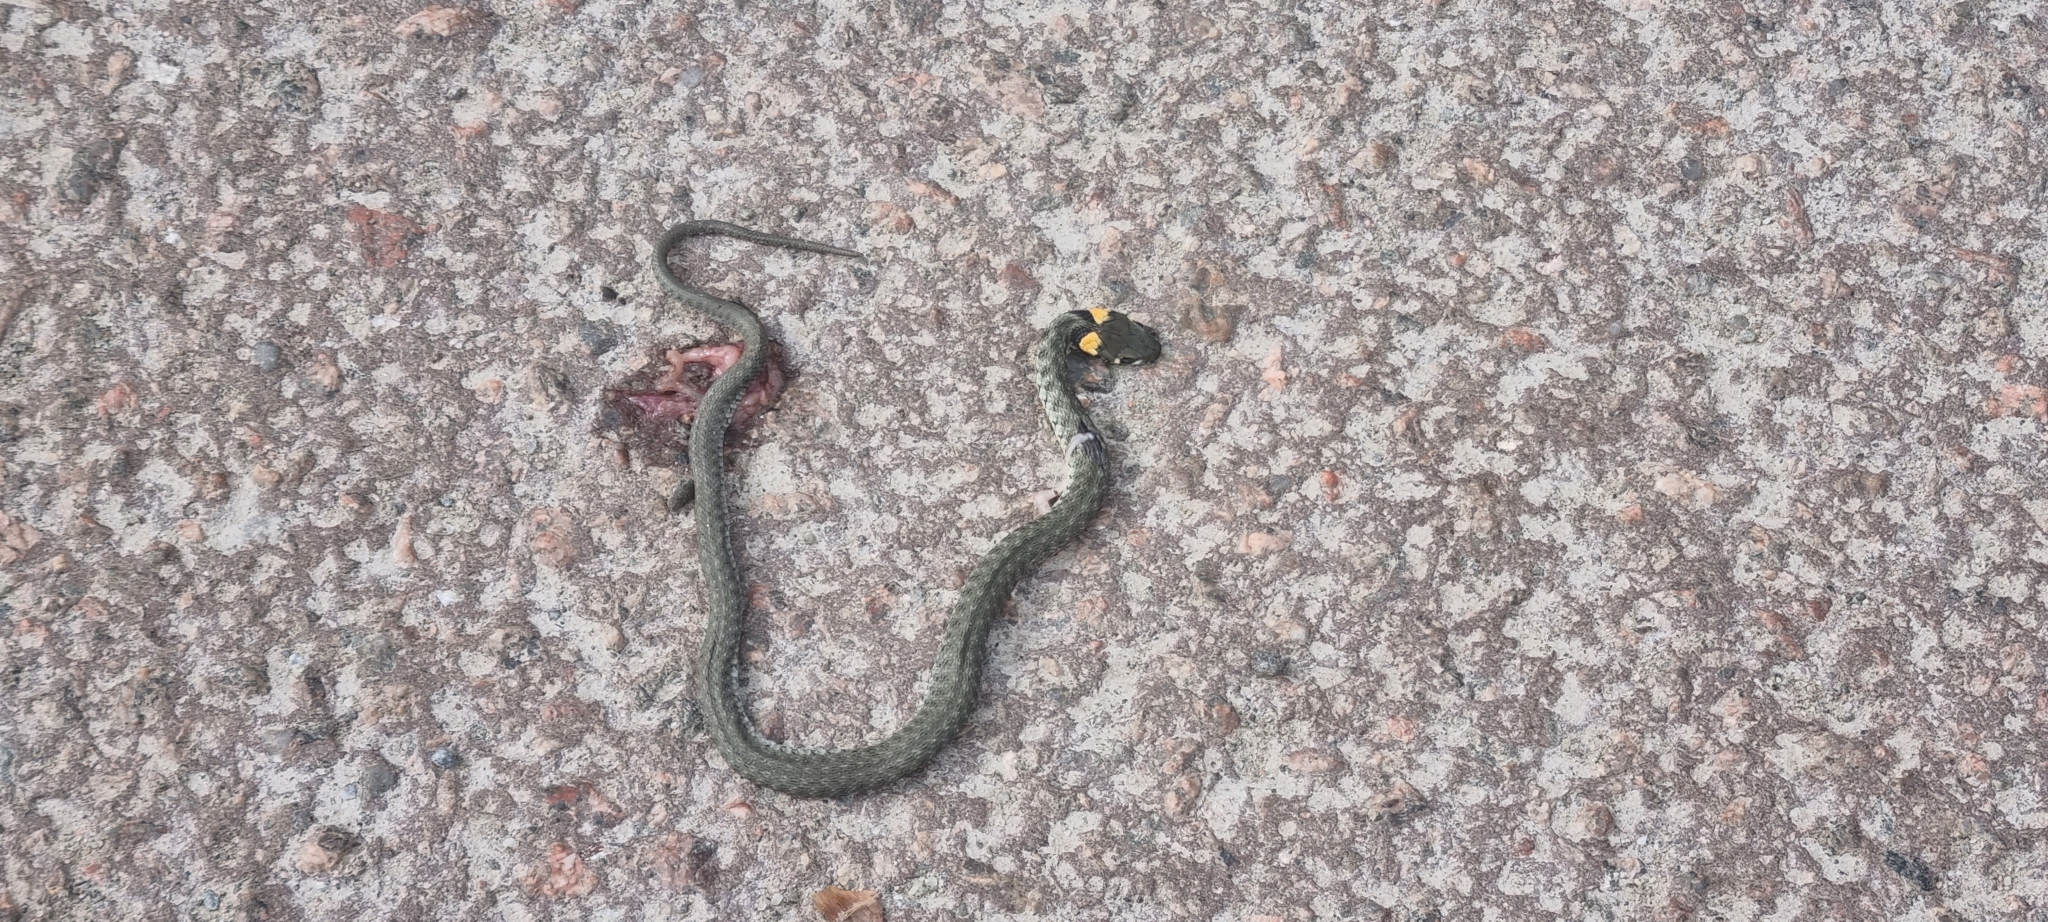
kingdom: Animalia
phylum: Chordata
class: Squamata
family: Colubridae
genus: Natrix
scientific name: Natrix natrix
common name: Grass snake
